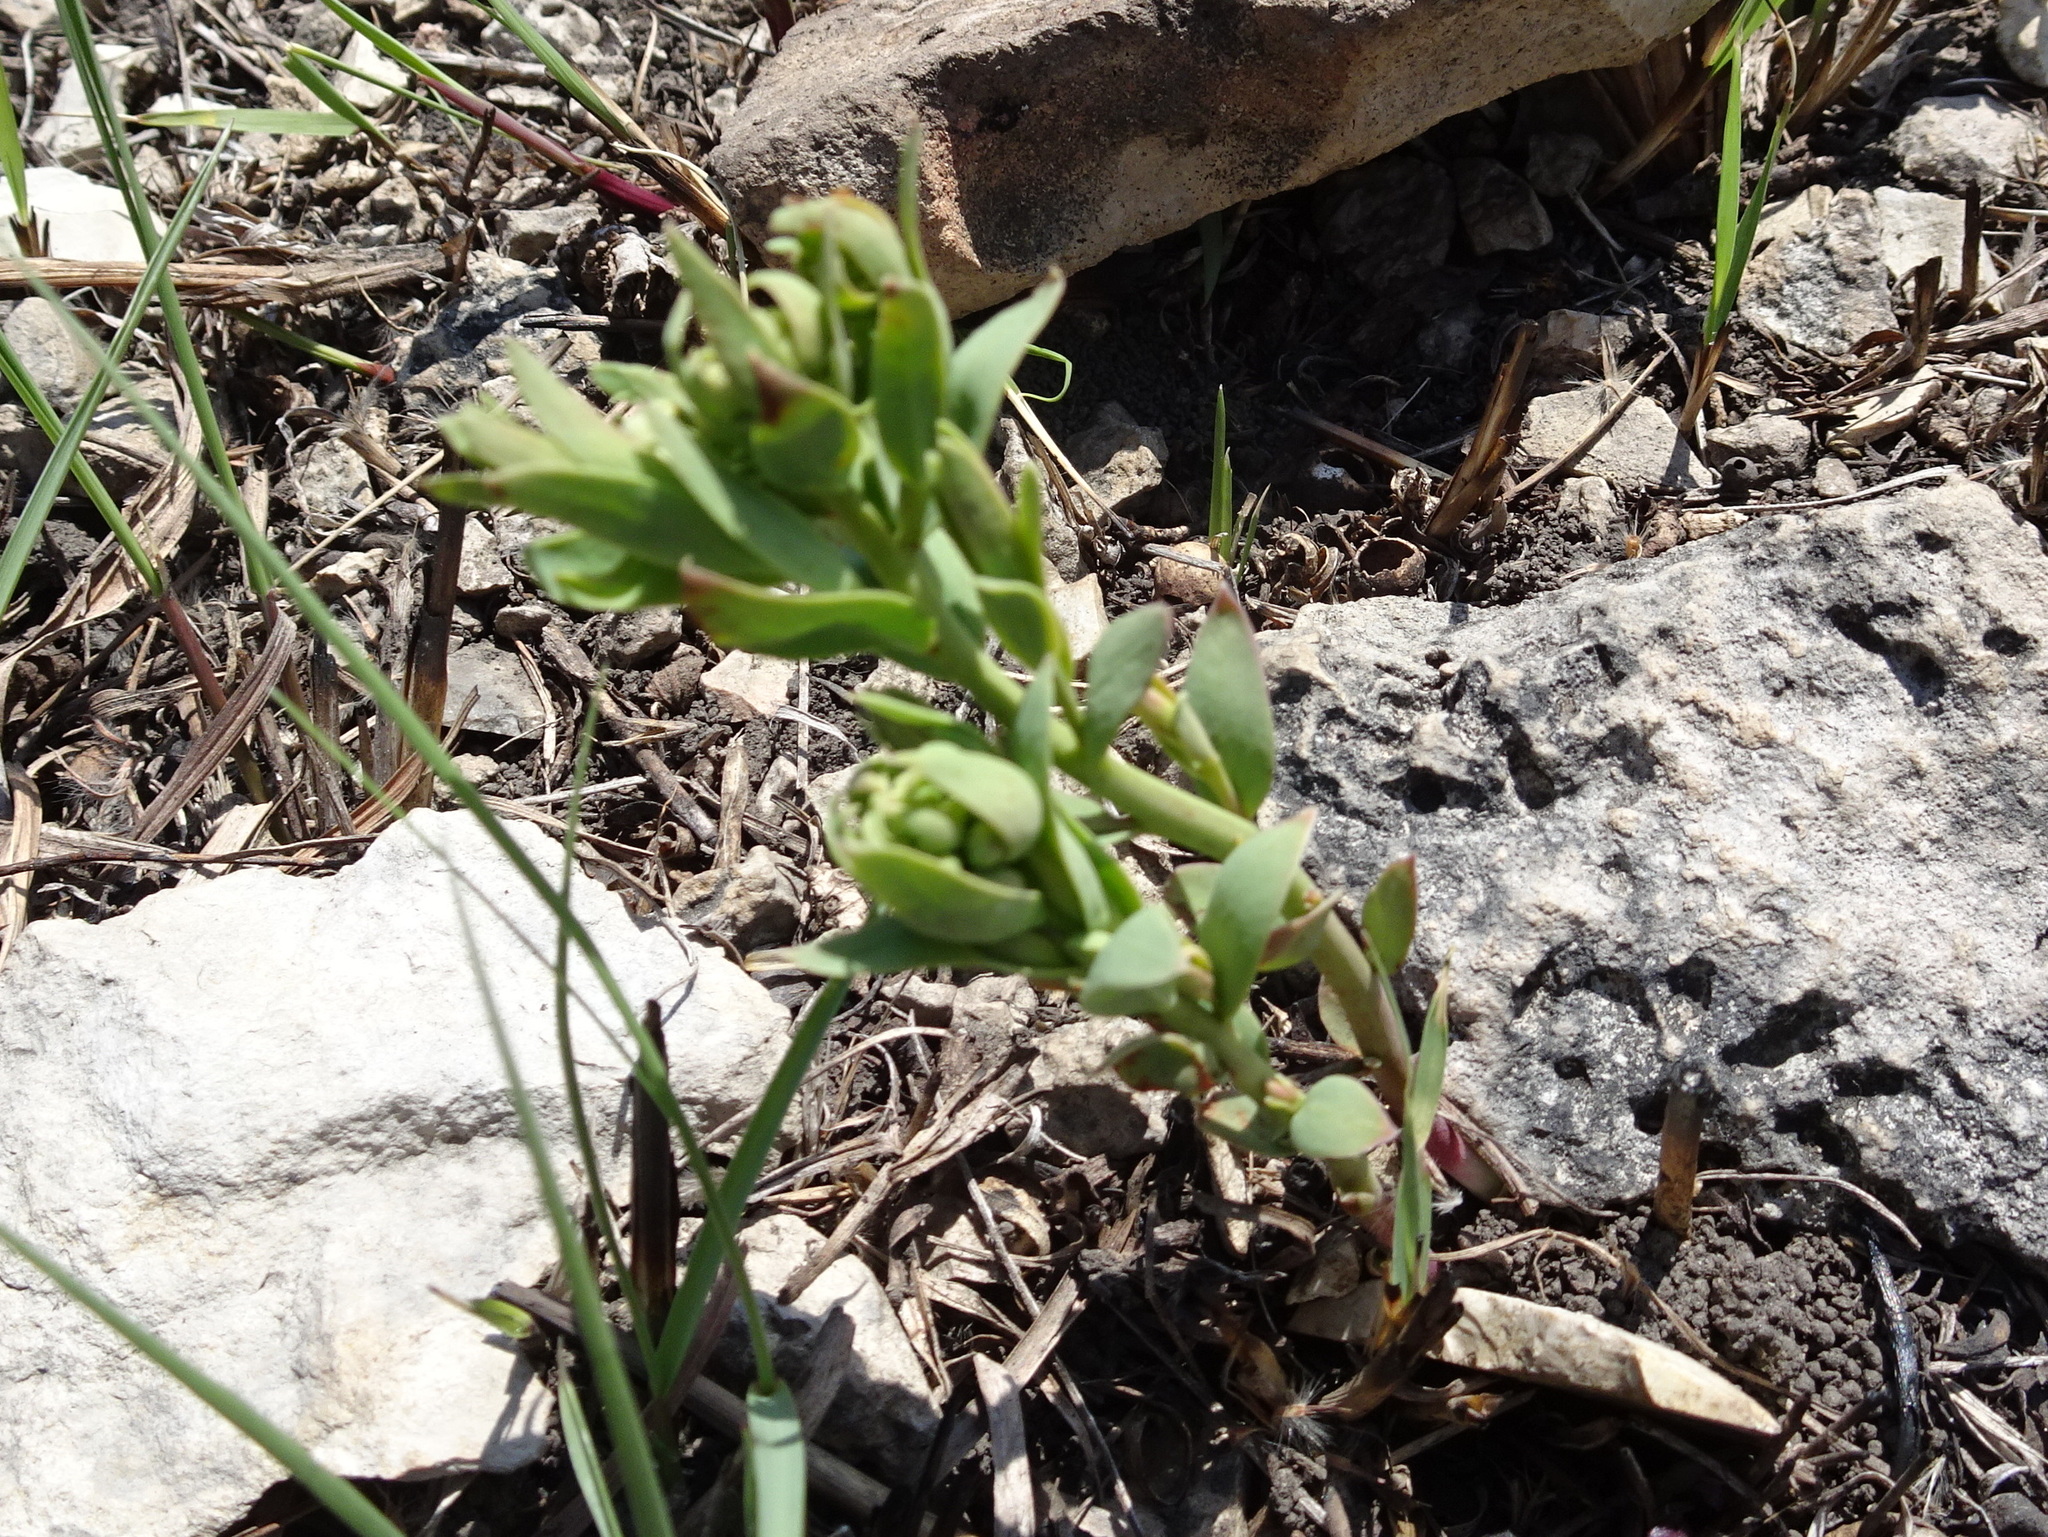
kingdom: Plantae
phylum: Tracheophyta
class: Magnoliopsida
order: Santalales
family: Comandraceae
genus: Comandra
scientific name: Comandra umbellata
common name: Bastard toadflax
